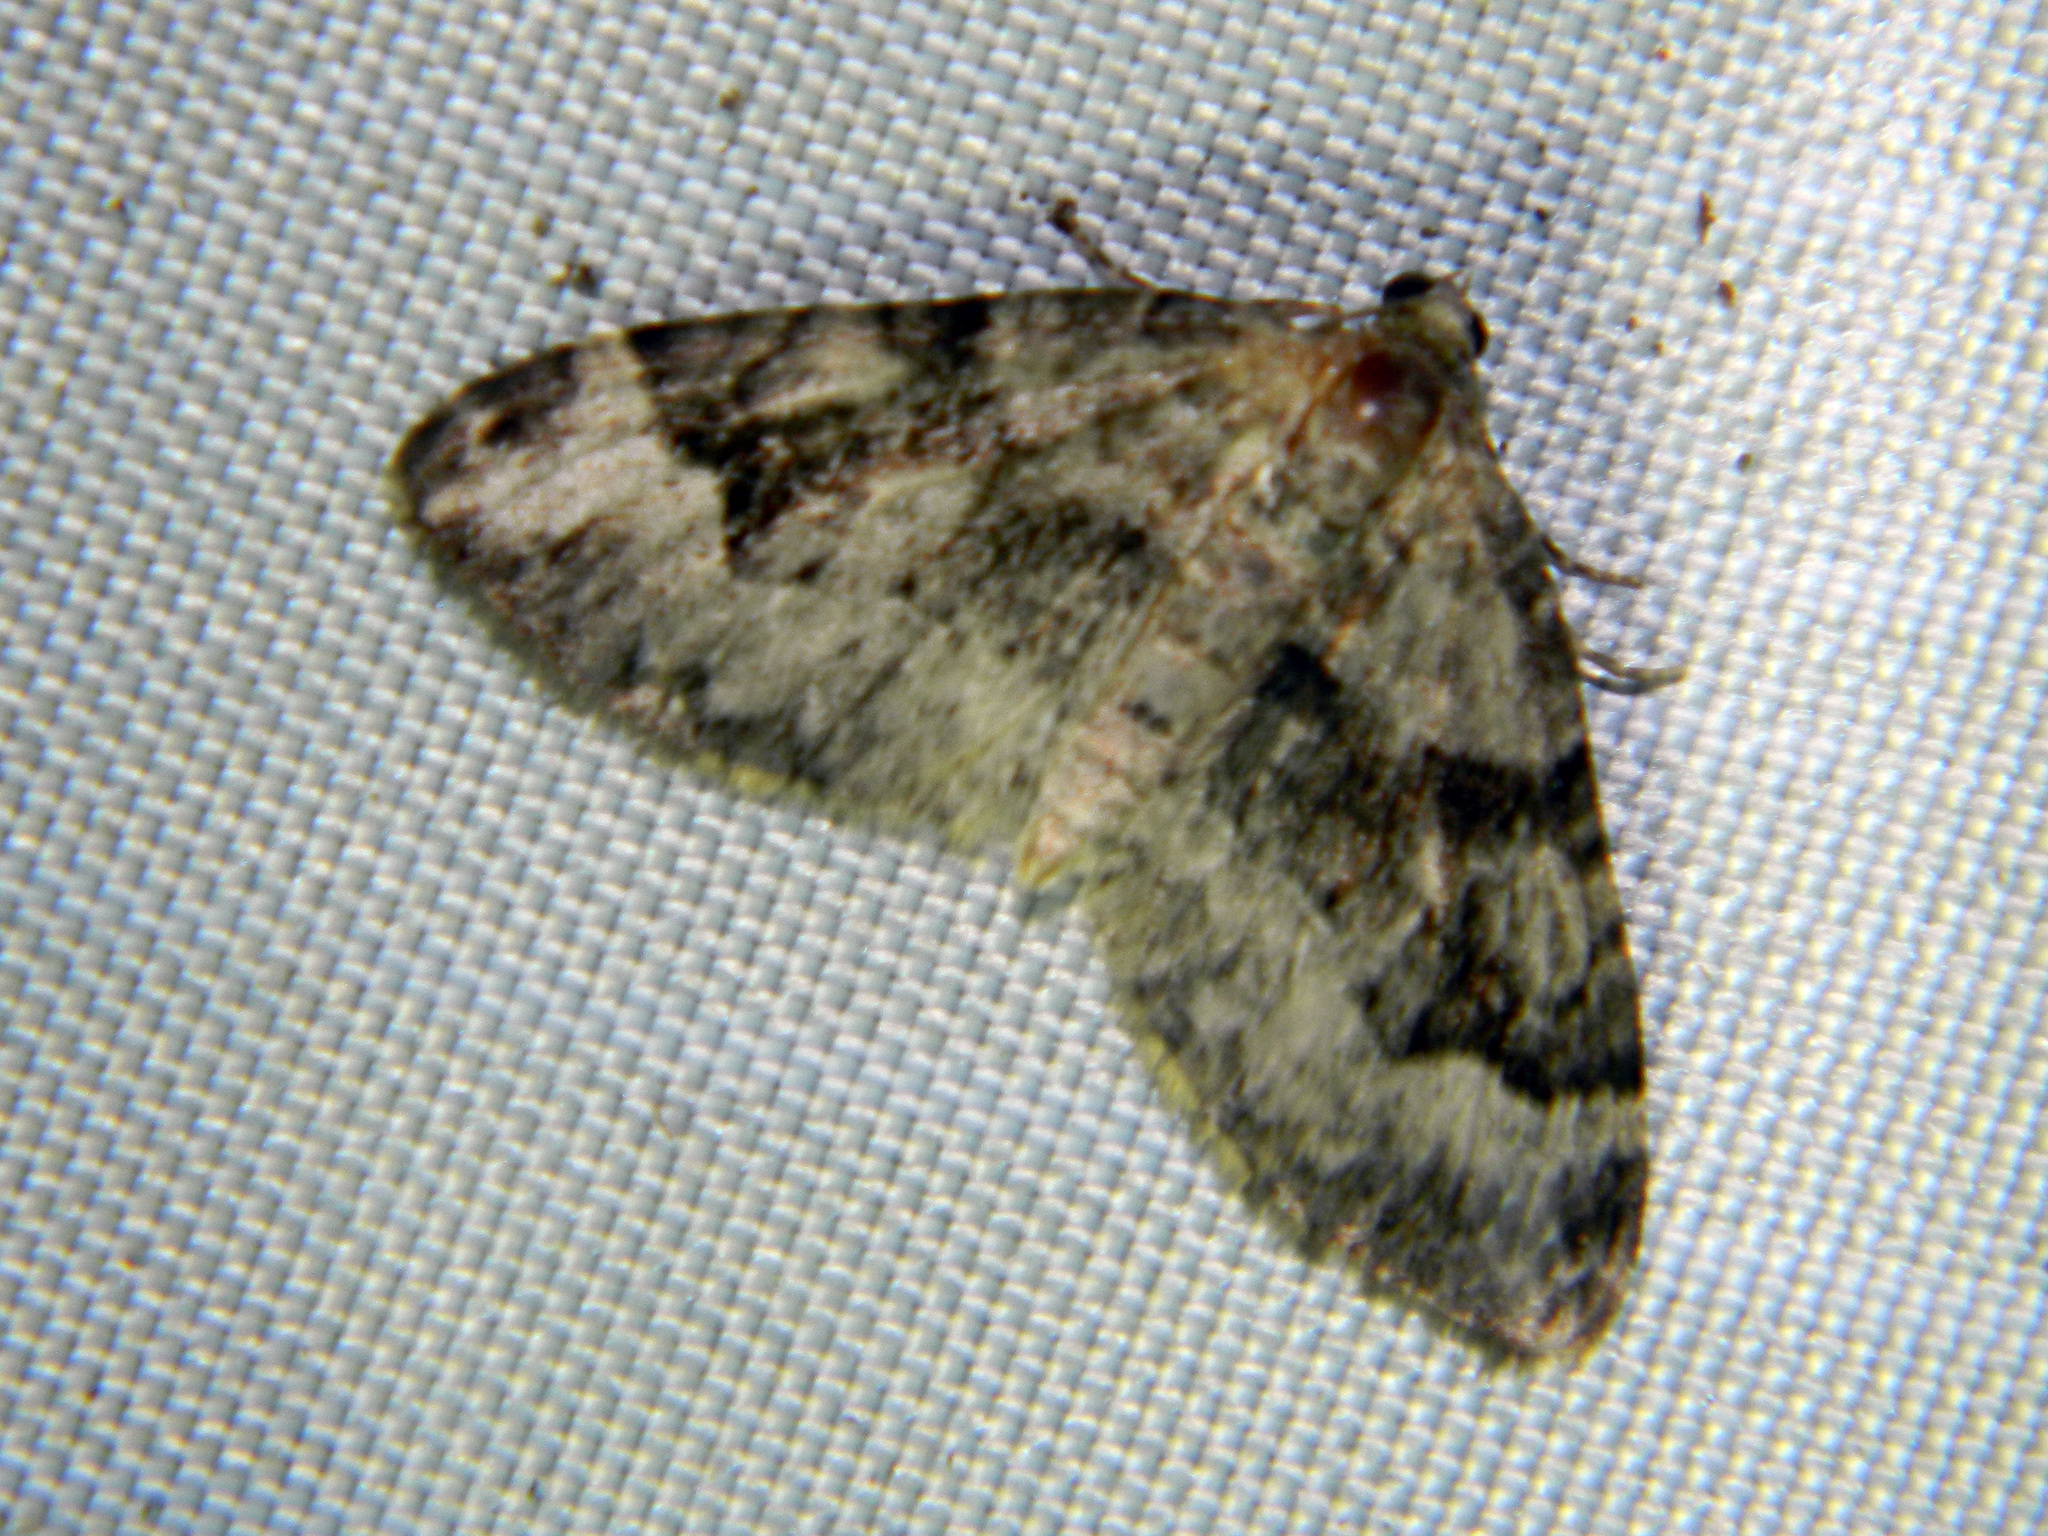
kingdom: Animalia
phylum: Arthropoda
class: Insecta
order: Lepidoptera
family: Geometridae
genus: Xanthorhoe
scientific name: Xanthorhoe lacustrata
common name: Toothed brown carpet
